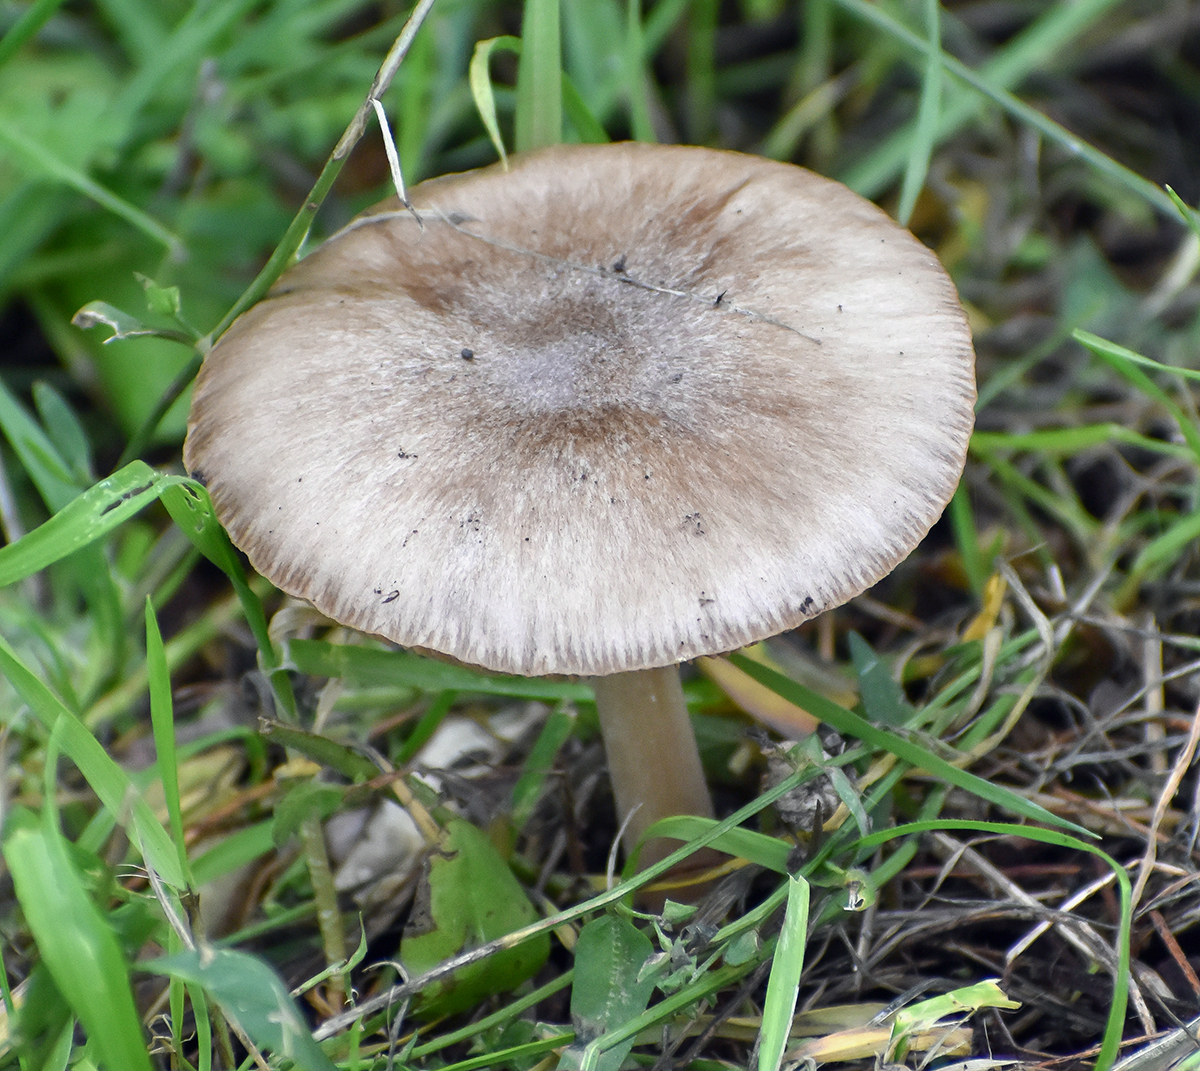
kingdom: Fungi
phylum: Basidiomycota
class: Agaricomycetes
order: Agaricales
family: Pluteaceae
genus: Volvopluteus
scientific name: Volvopluteus gloiocephalus
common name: Stubble rosegill
